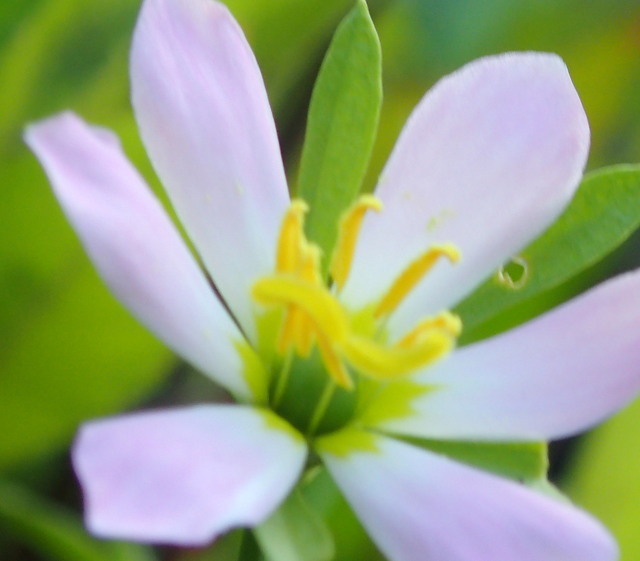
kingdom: Plantae
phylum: Tracheophyta
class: Magnoliopsida
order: Gentianales
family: Gentianaceae
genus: Sabatia
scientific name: Sabatia calycina
